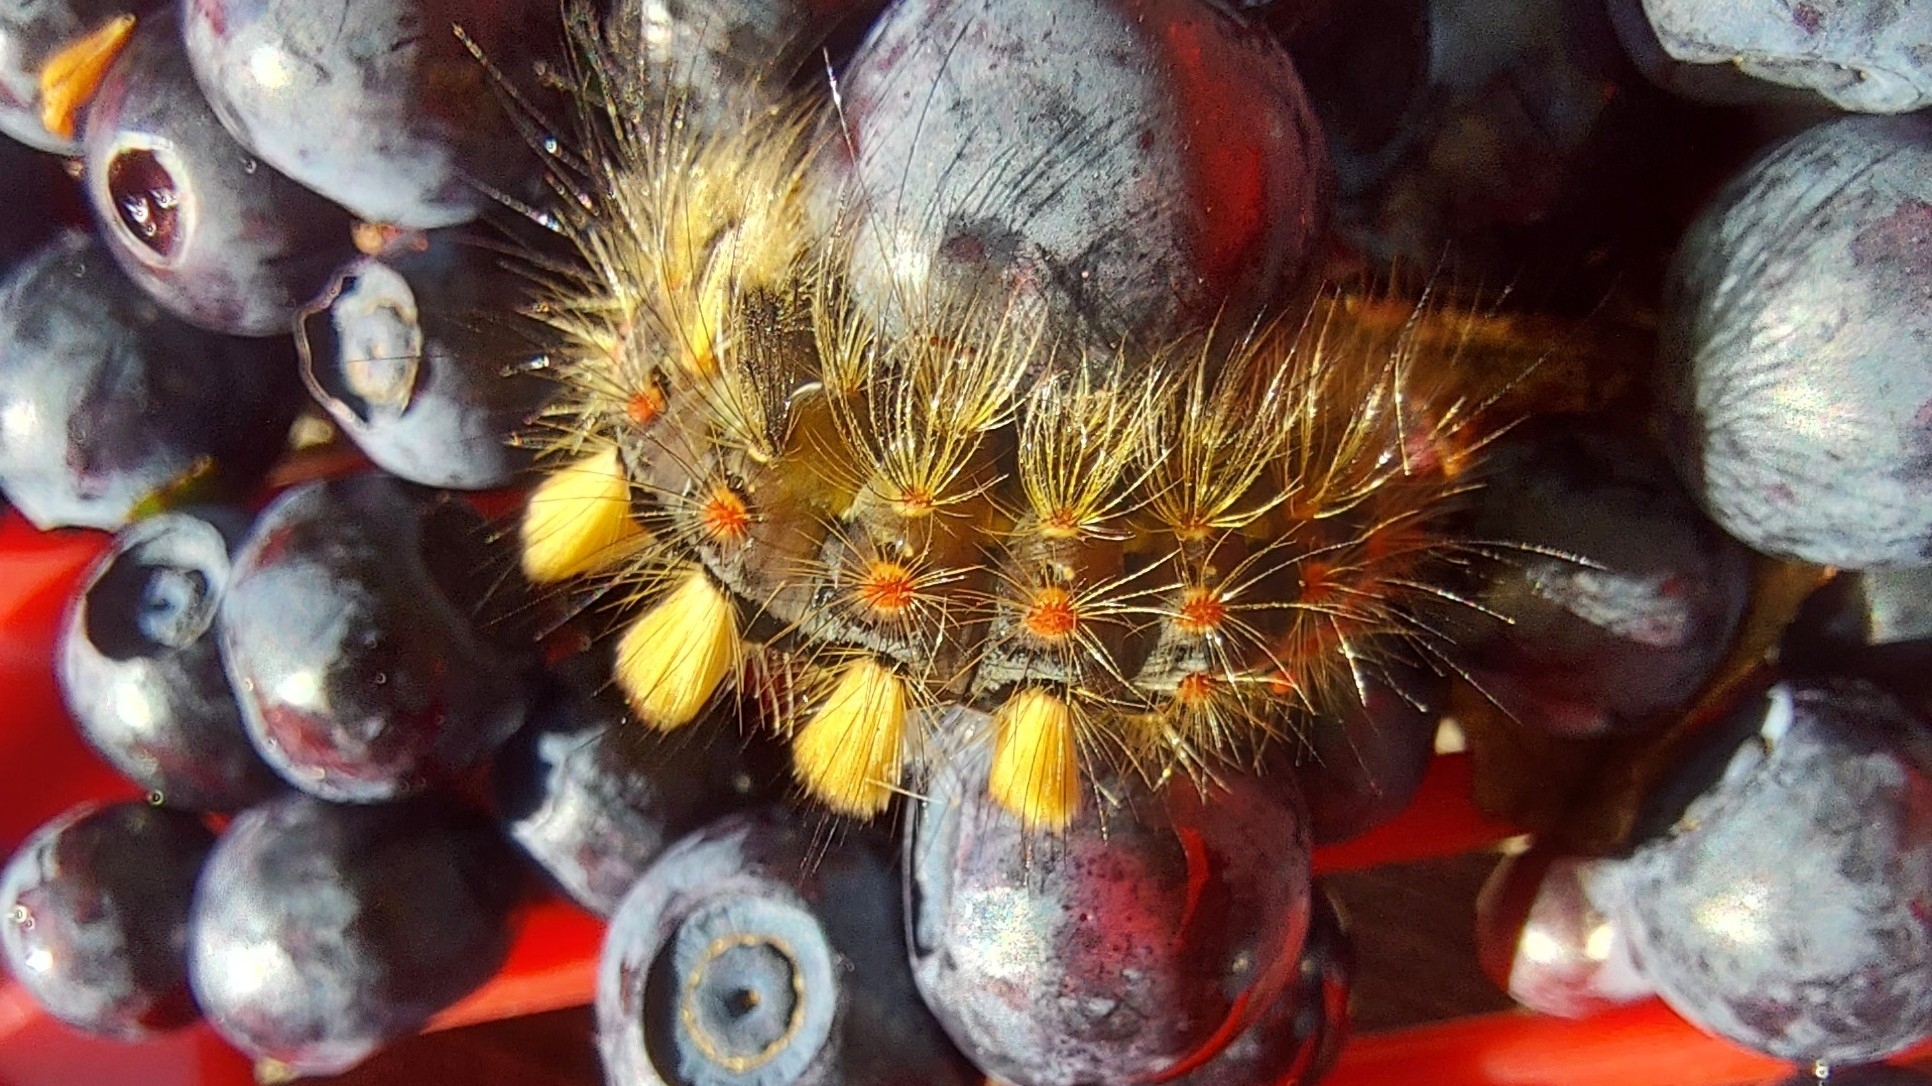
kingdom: Animalia
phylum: Arthropoda
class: Insecta
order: Lepidoptera
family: Erebidae
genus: Orgyia
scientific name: Orgyia antiqua
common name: Vapourer
